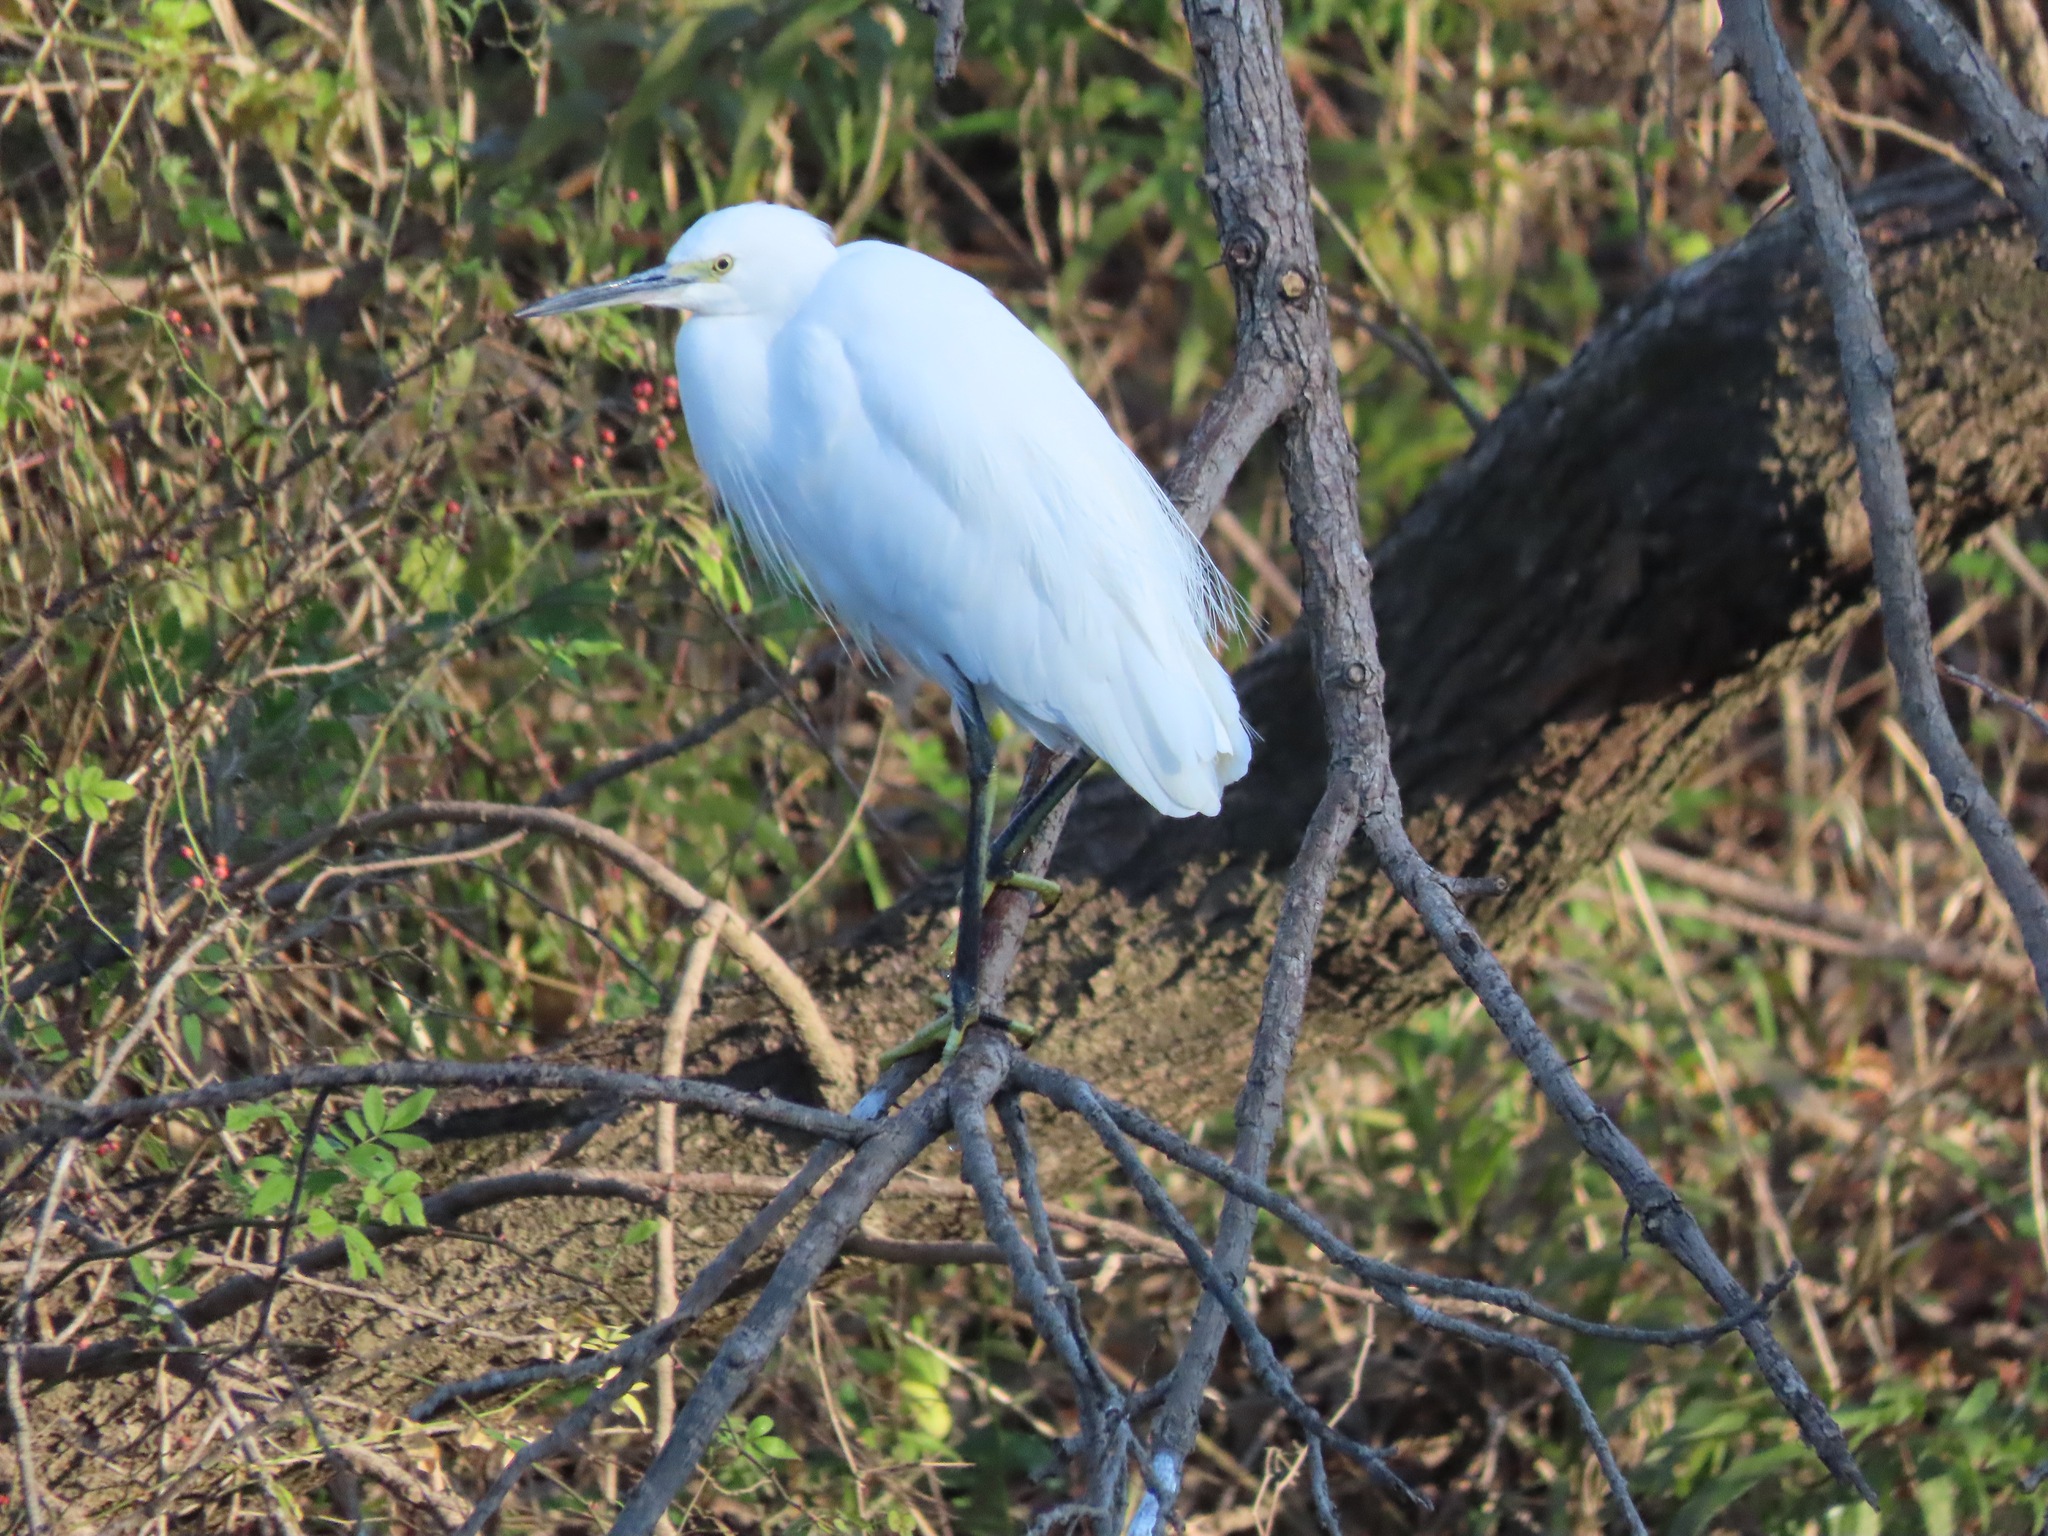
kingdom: Animalia
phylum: Chordata
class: Aves
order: Pelecaniformes
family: Ardeidae
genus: Egretta
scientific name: Egretta garzetta
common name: Little egret
